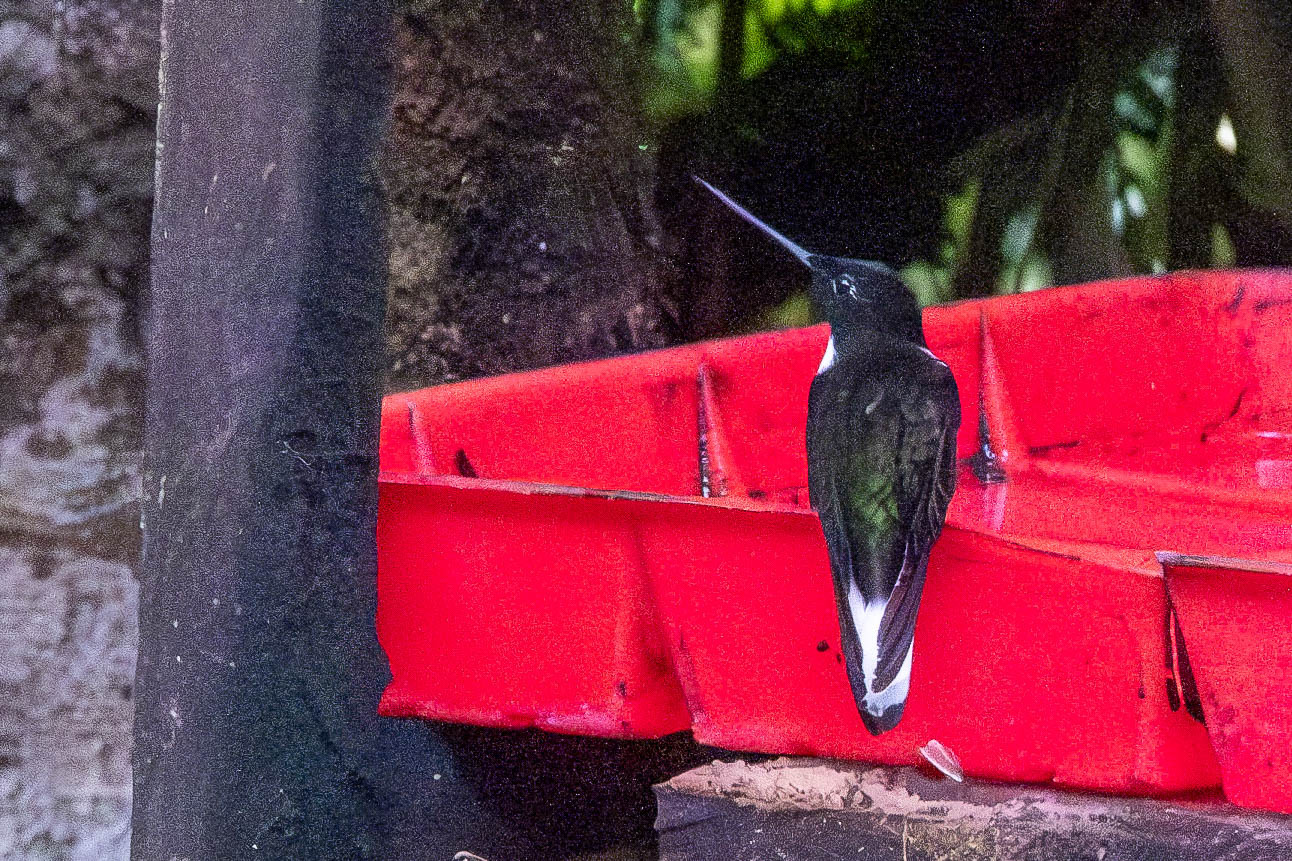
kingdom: Animalia
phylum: Chordata
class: Aves
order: Apodiformes
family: Trochilidae
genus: Coeligena
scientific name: Coeligena torquata
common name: Collared inca
